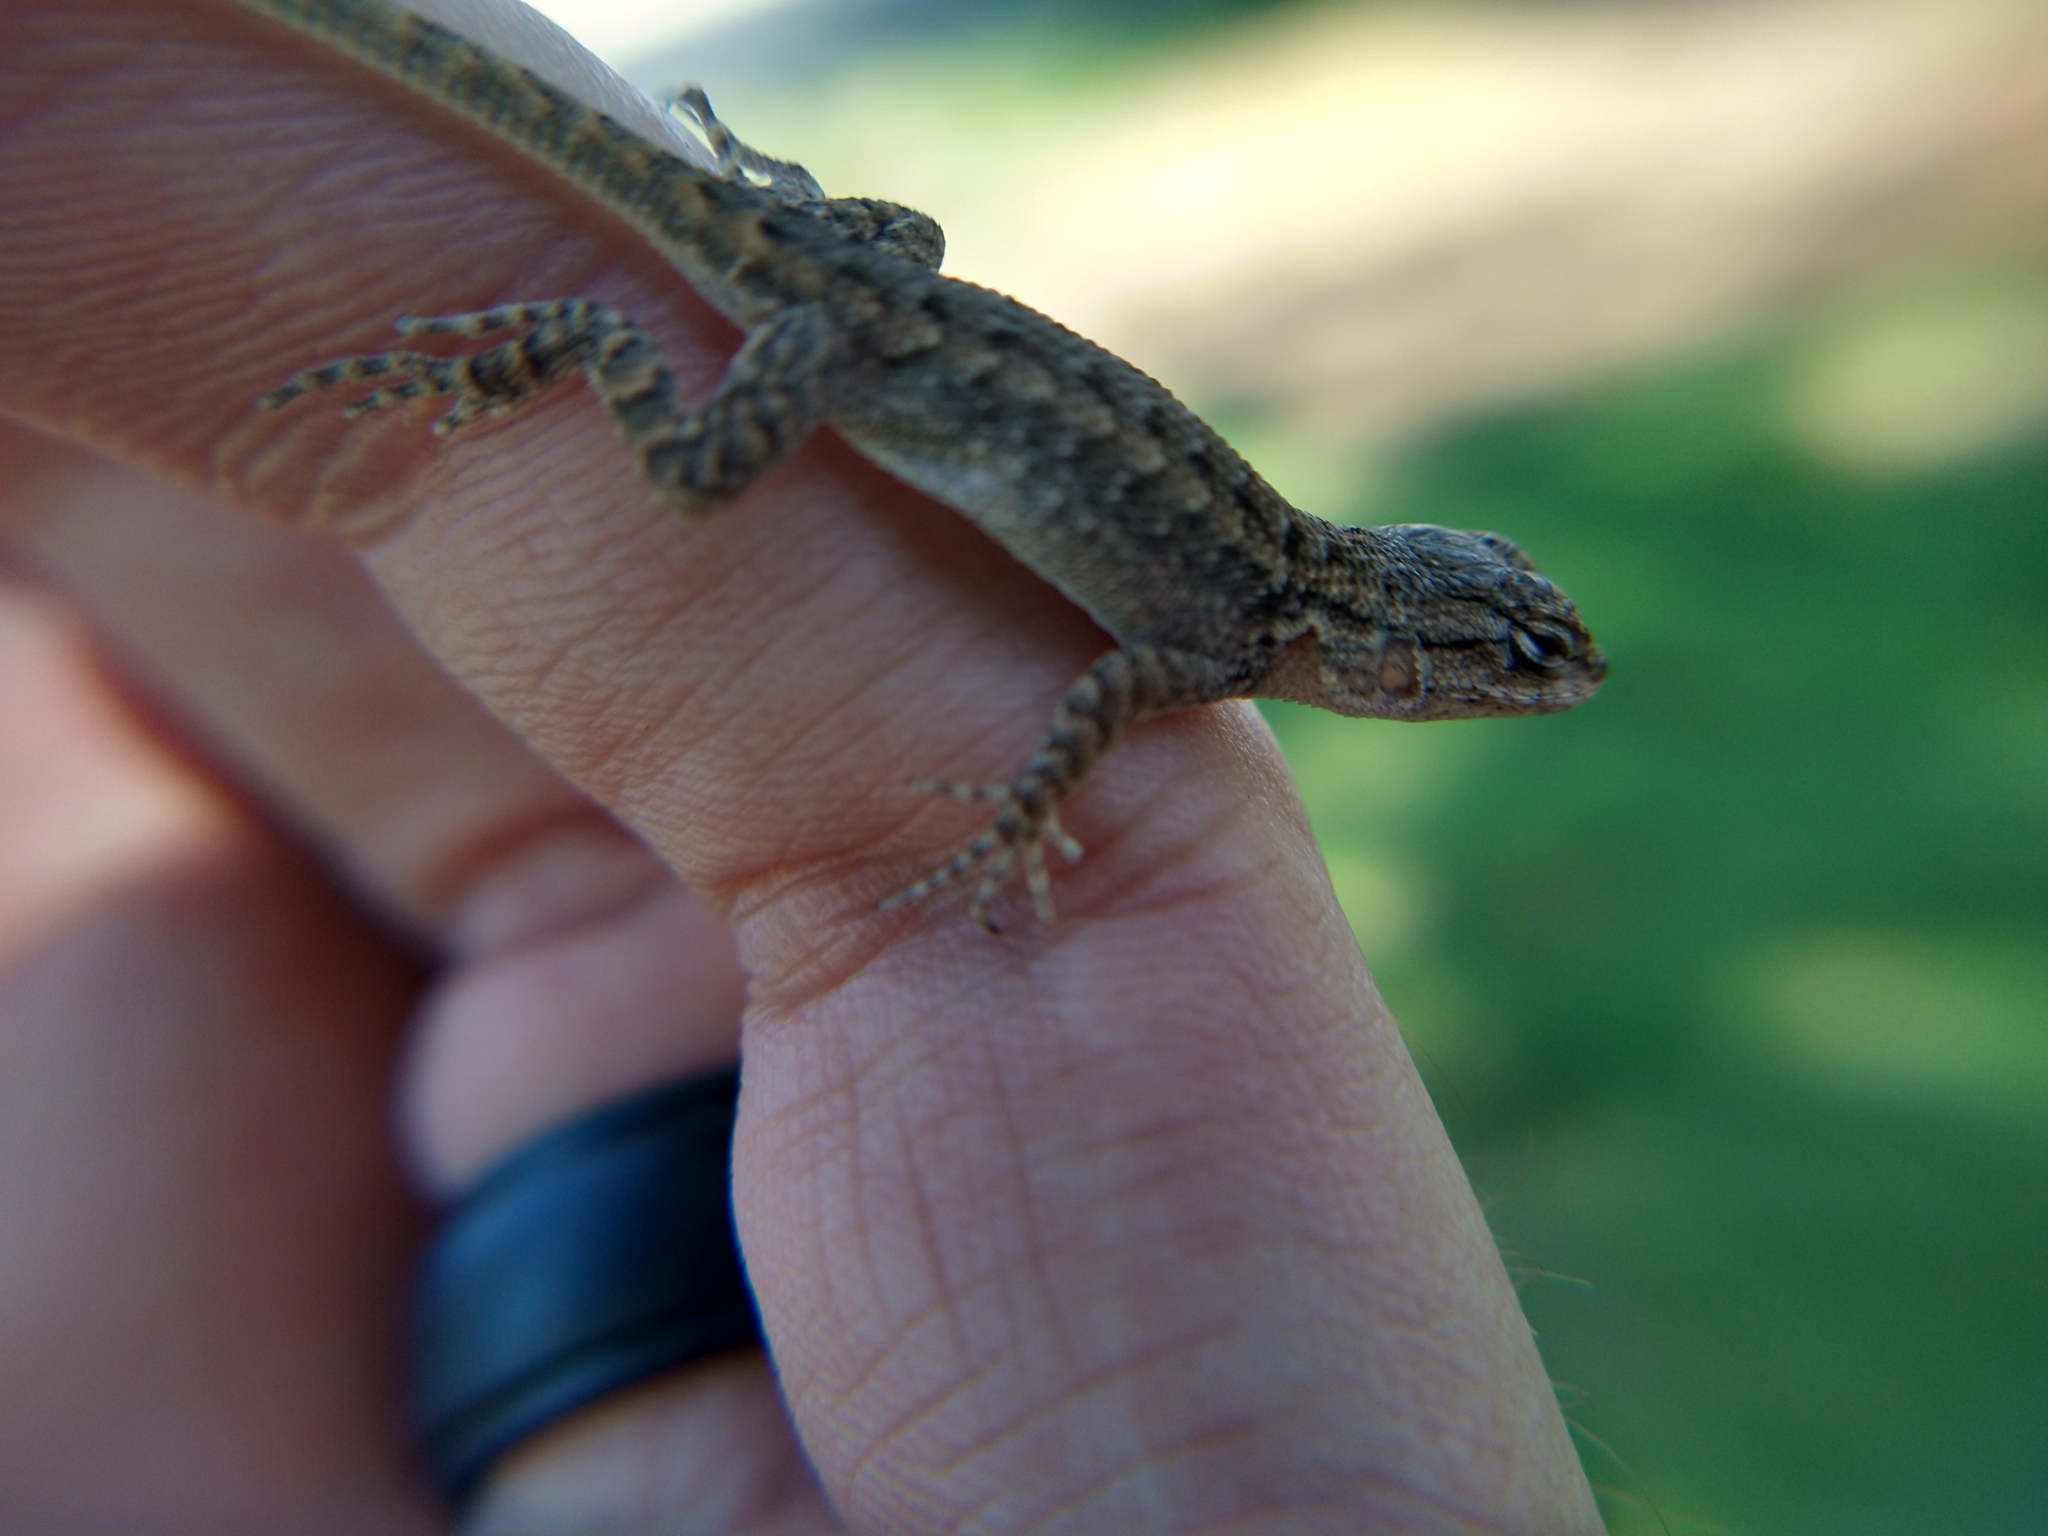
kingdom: Animalia
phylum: Chordata
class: Squamata
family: Phrynosomatidae
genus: Sceloporus
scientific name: Sceloporus occidentalis
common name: Western fence lizard
